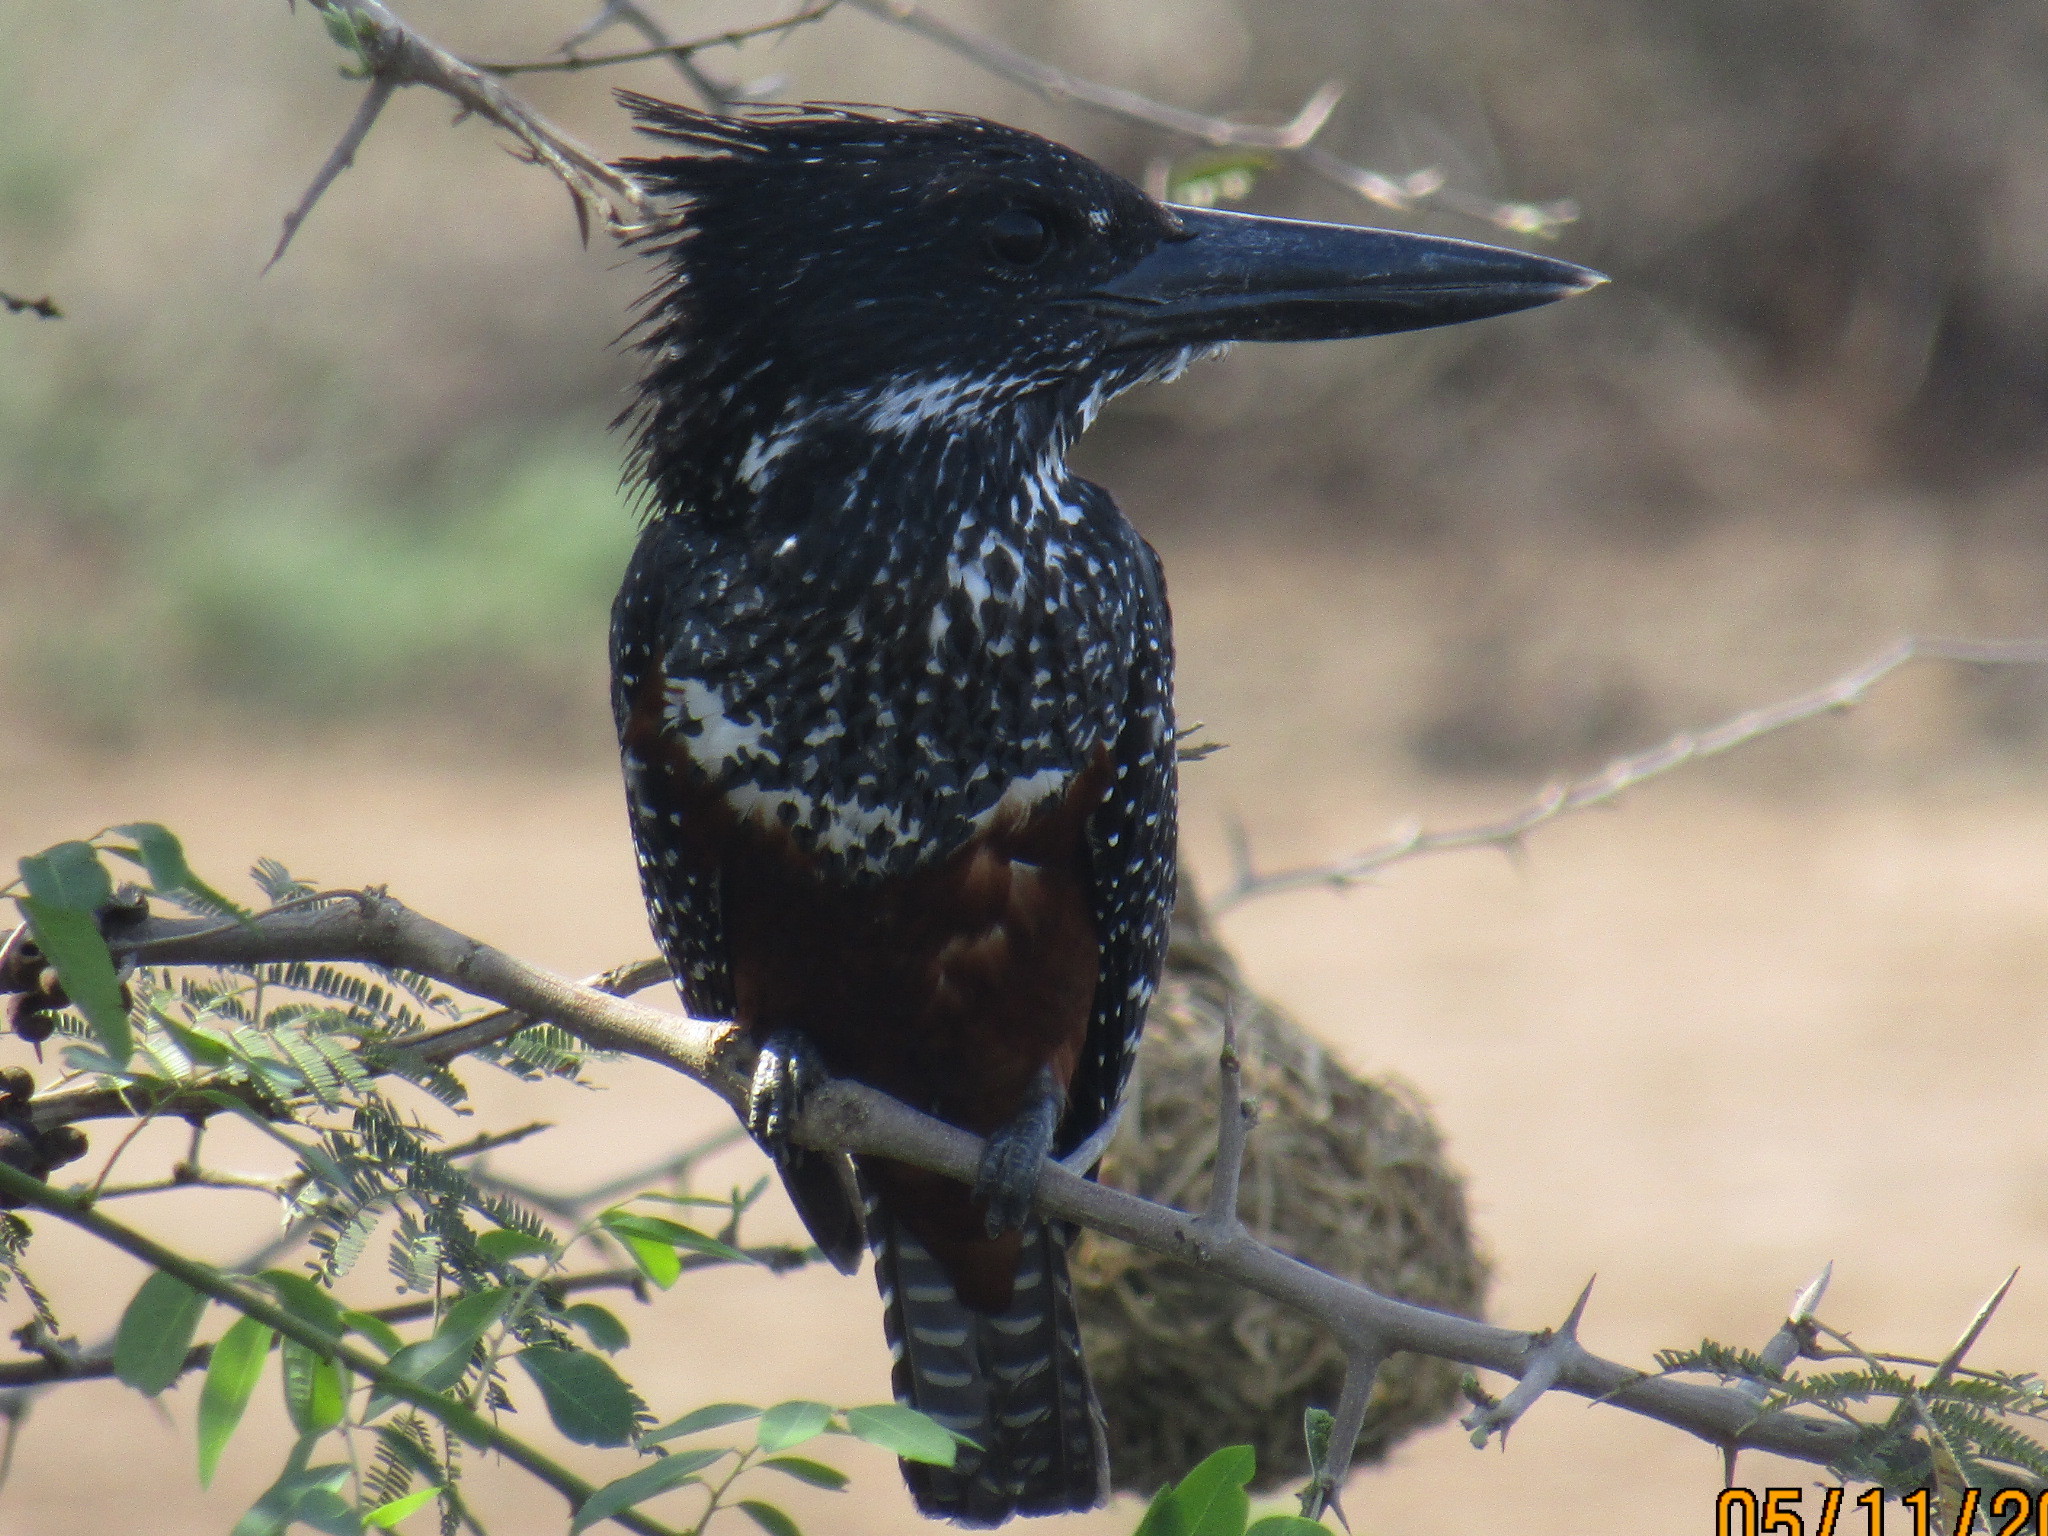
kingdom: Animalia
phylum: Chordata
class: Aves
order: Coraciiformes
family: Alcedinidae
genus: Megaceryle
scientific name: Megaceryle maxima
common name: Giant kingfisher
